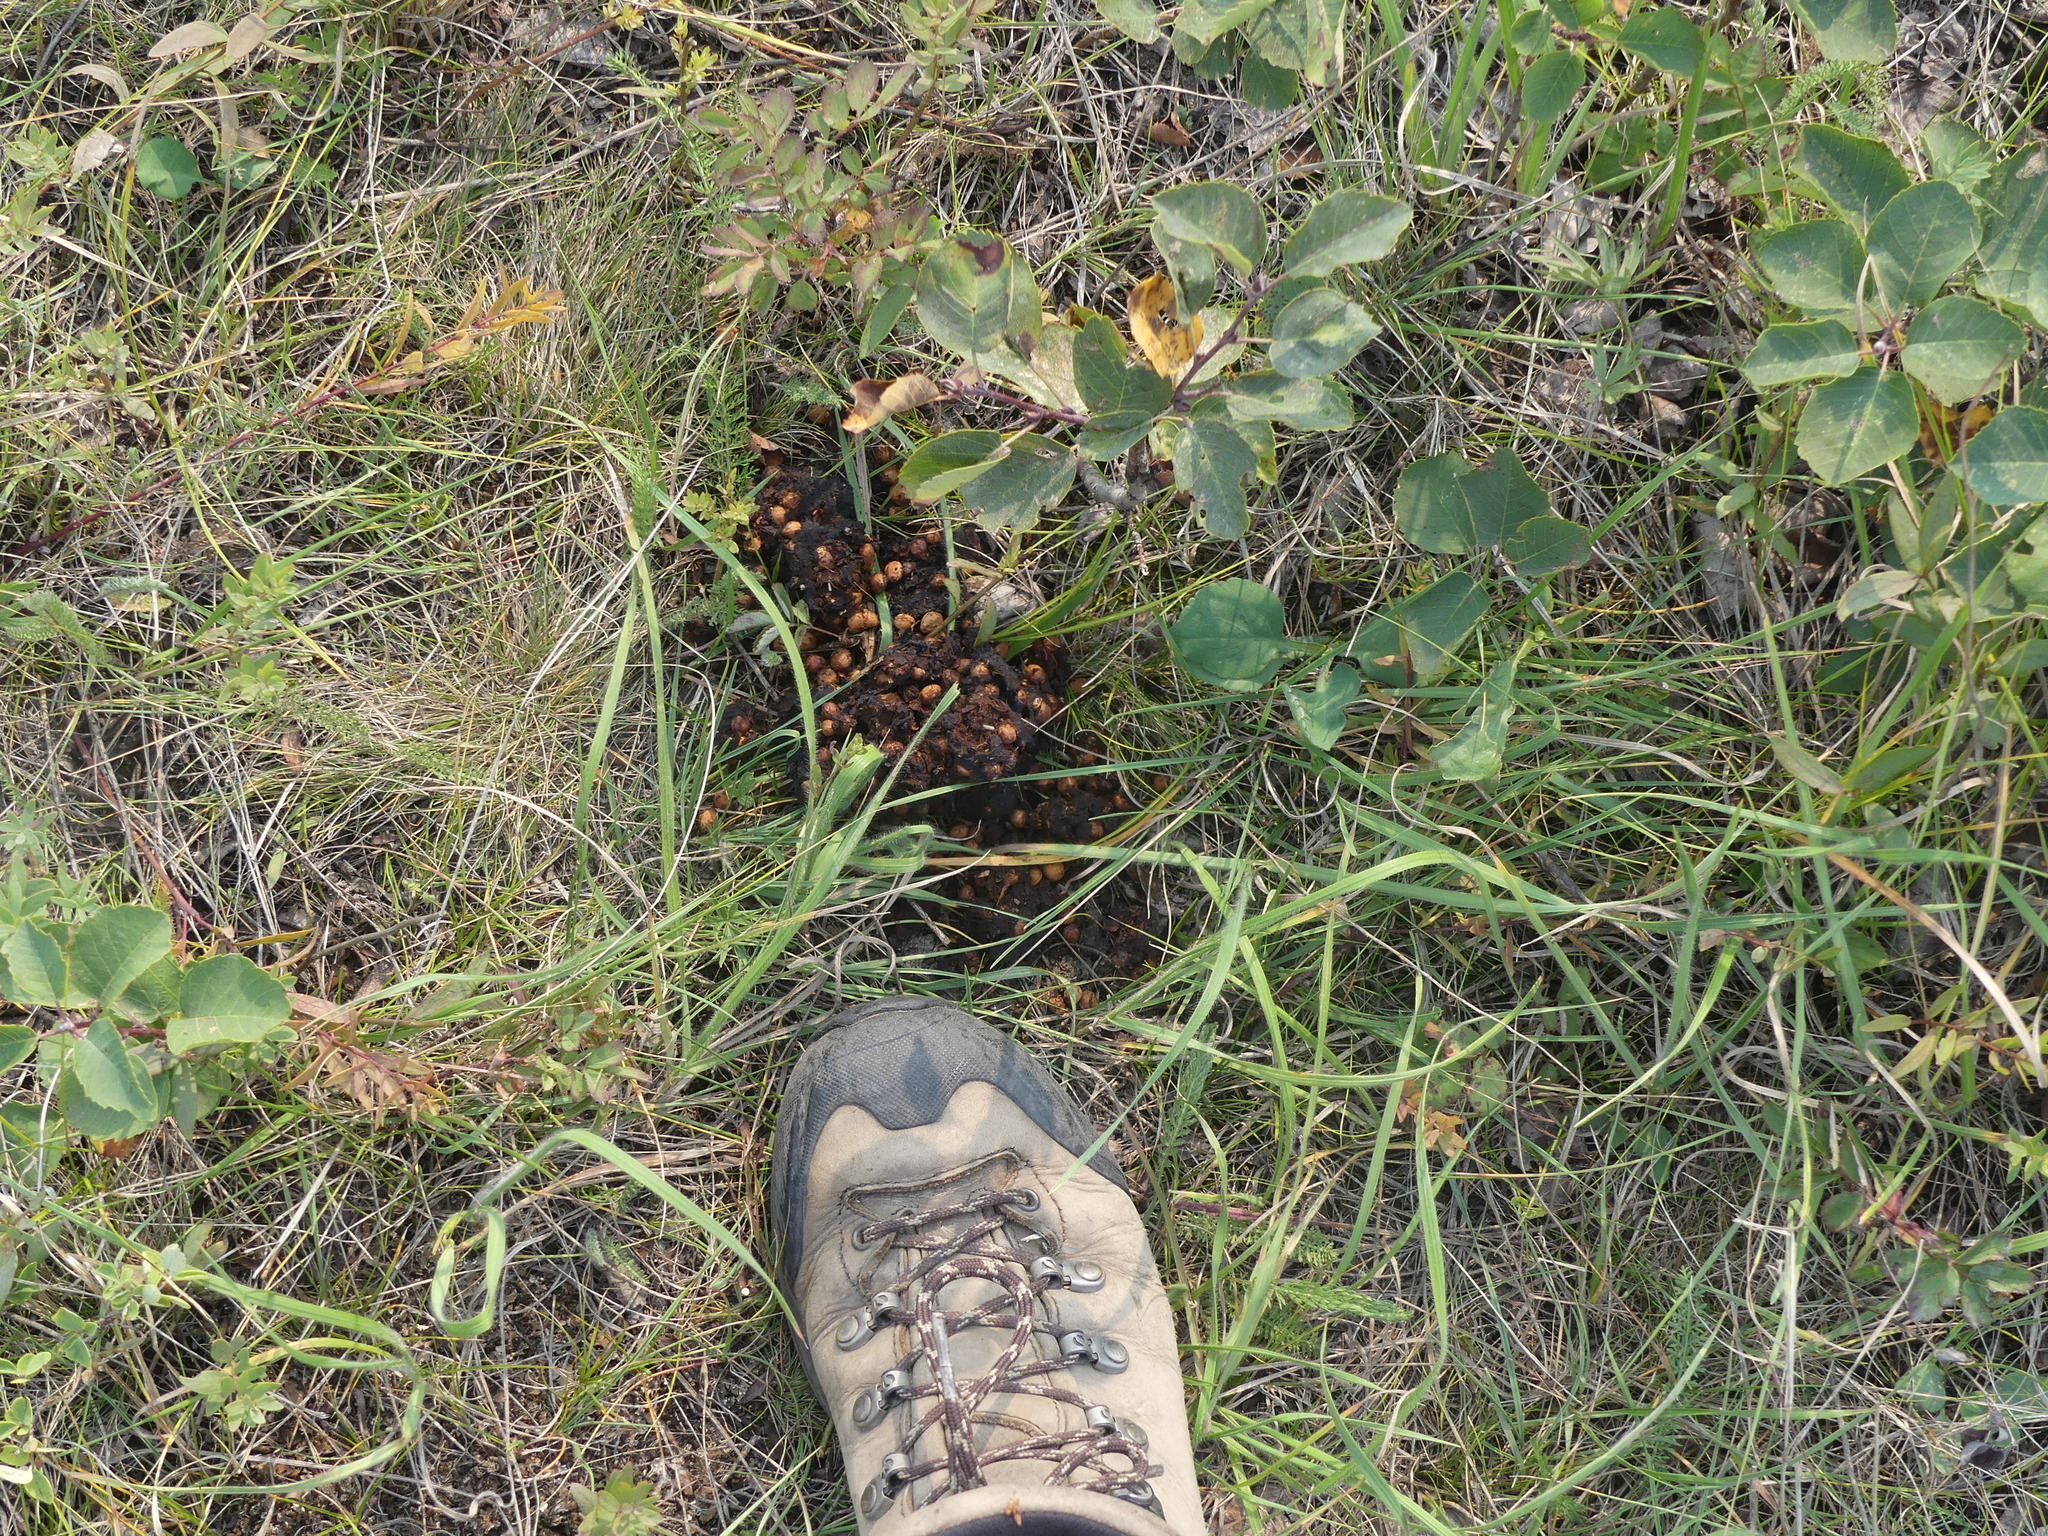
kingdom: Animalia
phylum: Chordata
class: Mammalia
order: Carnivora
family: Ursidae
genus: Ursus
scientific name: Ursus americanus
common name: American black bear
